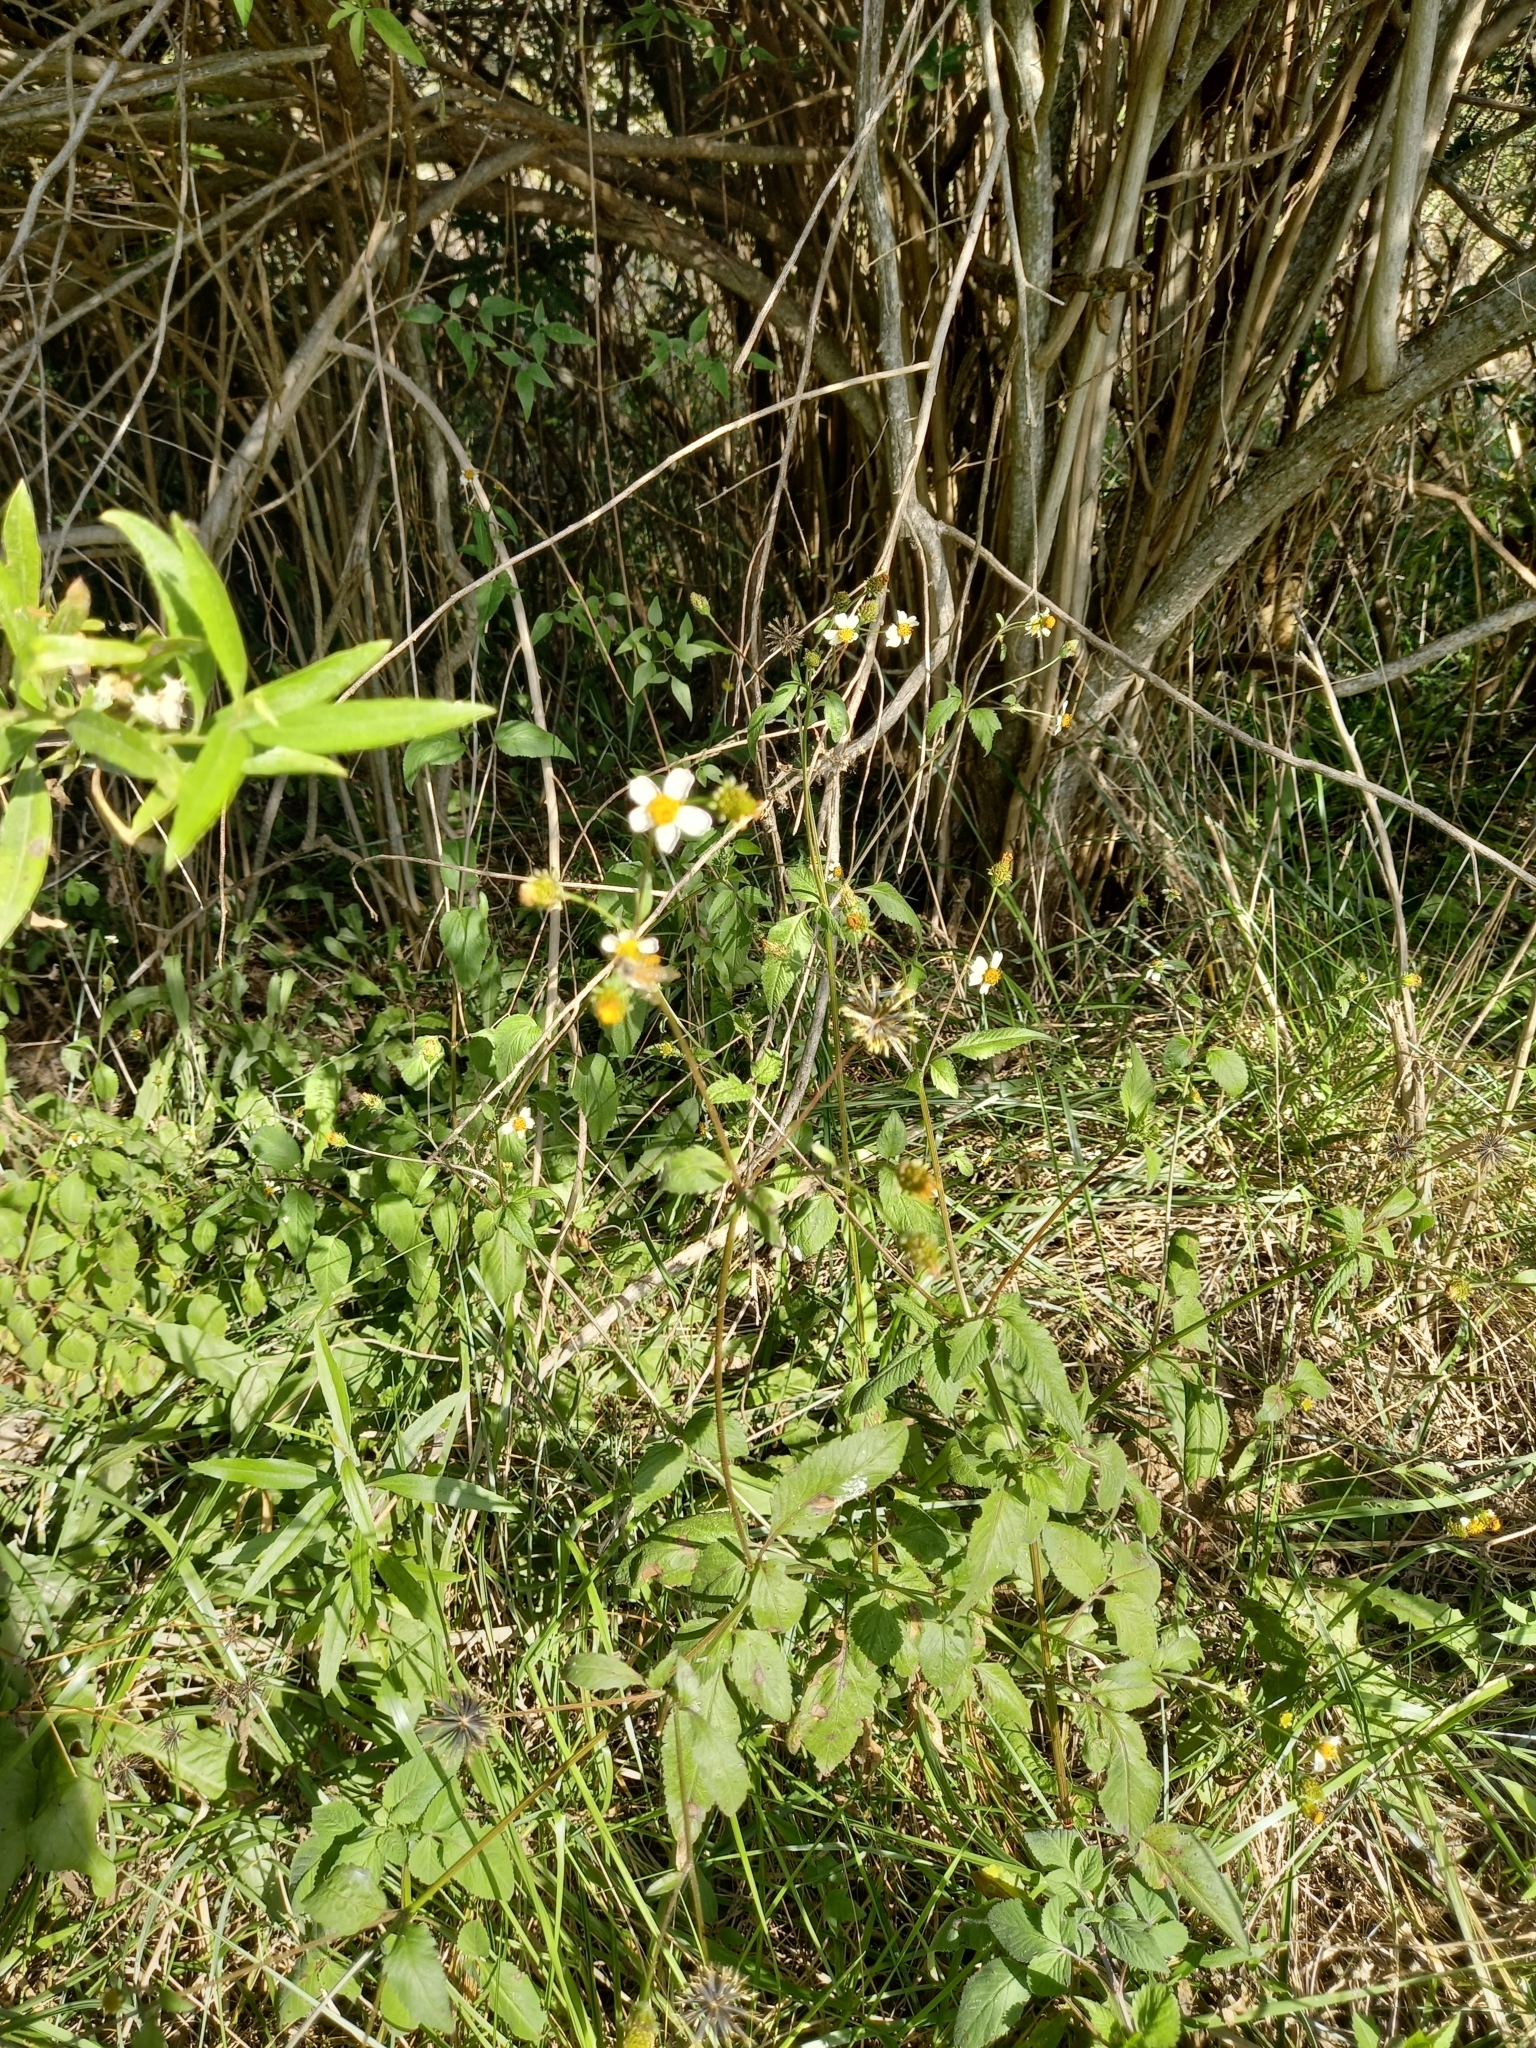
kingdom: Plantae
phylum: Tracheophyta
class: Magnoliopsida
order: Asterales
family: Asteraceae
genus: Bidens
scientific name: Bidens pilosa
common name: Black-jack
